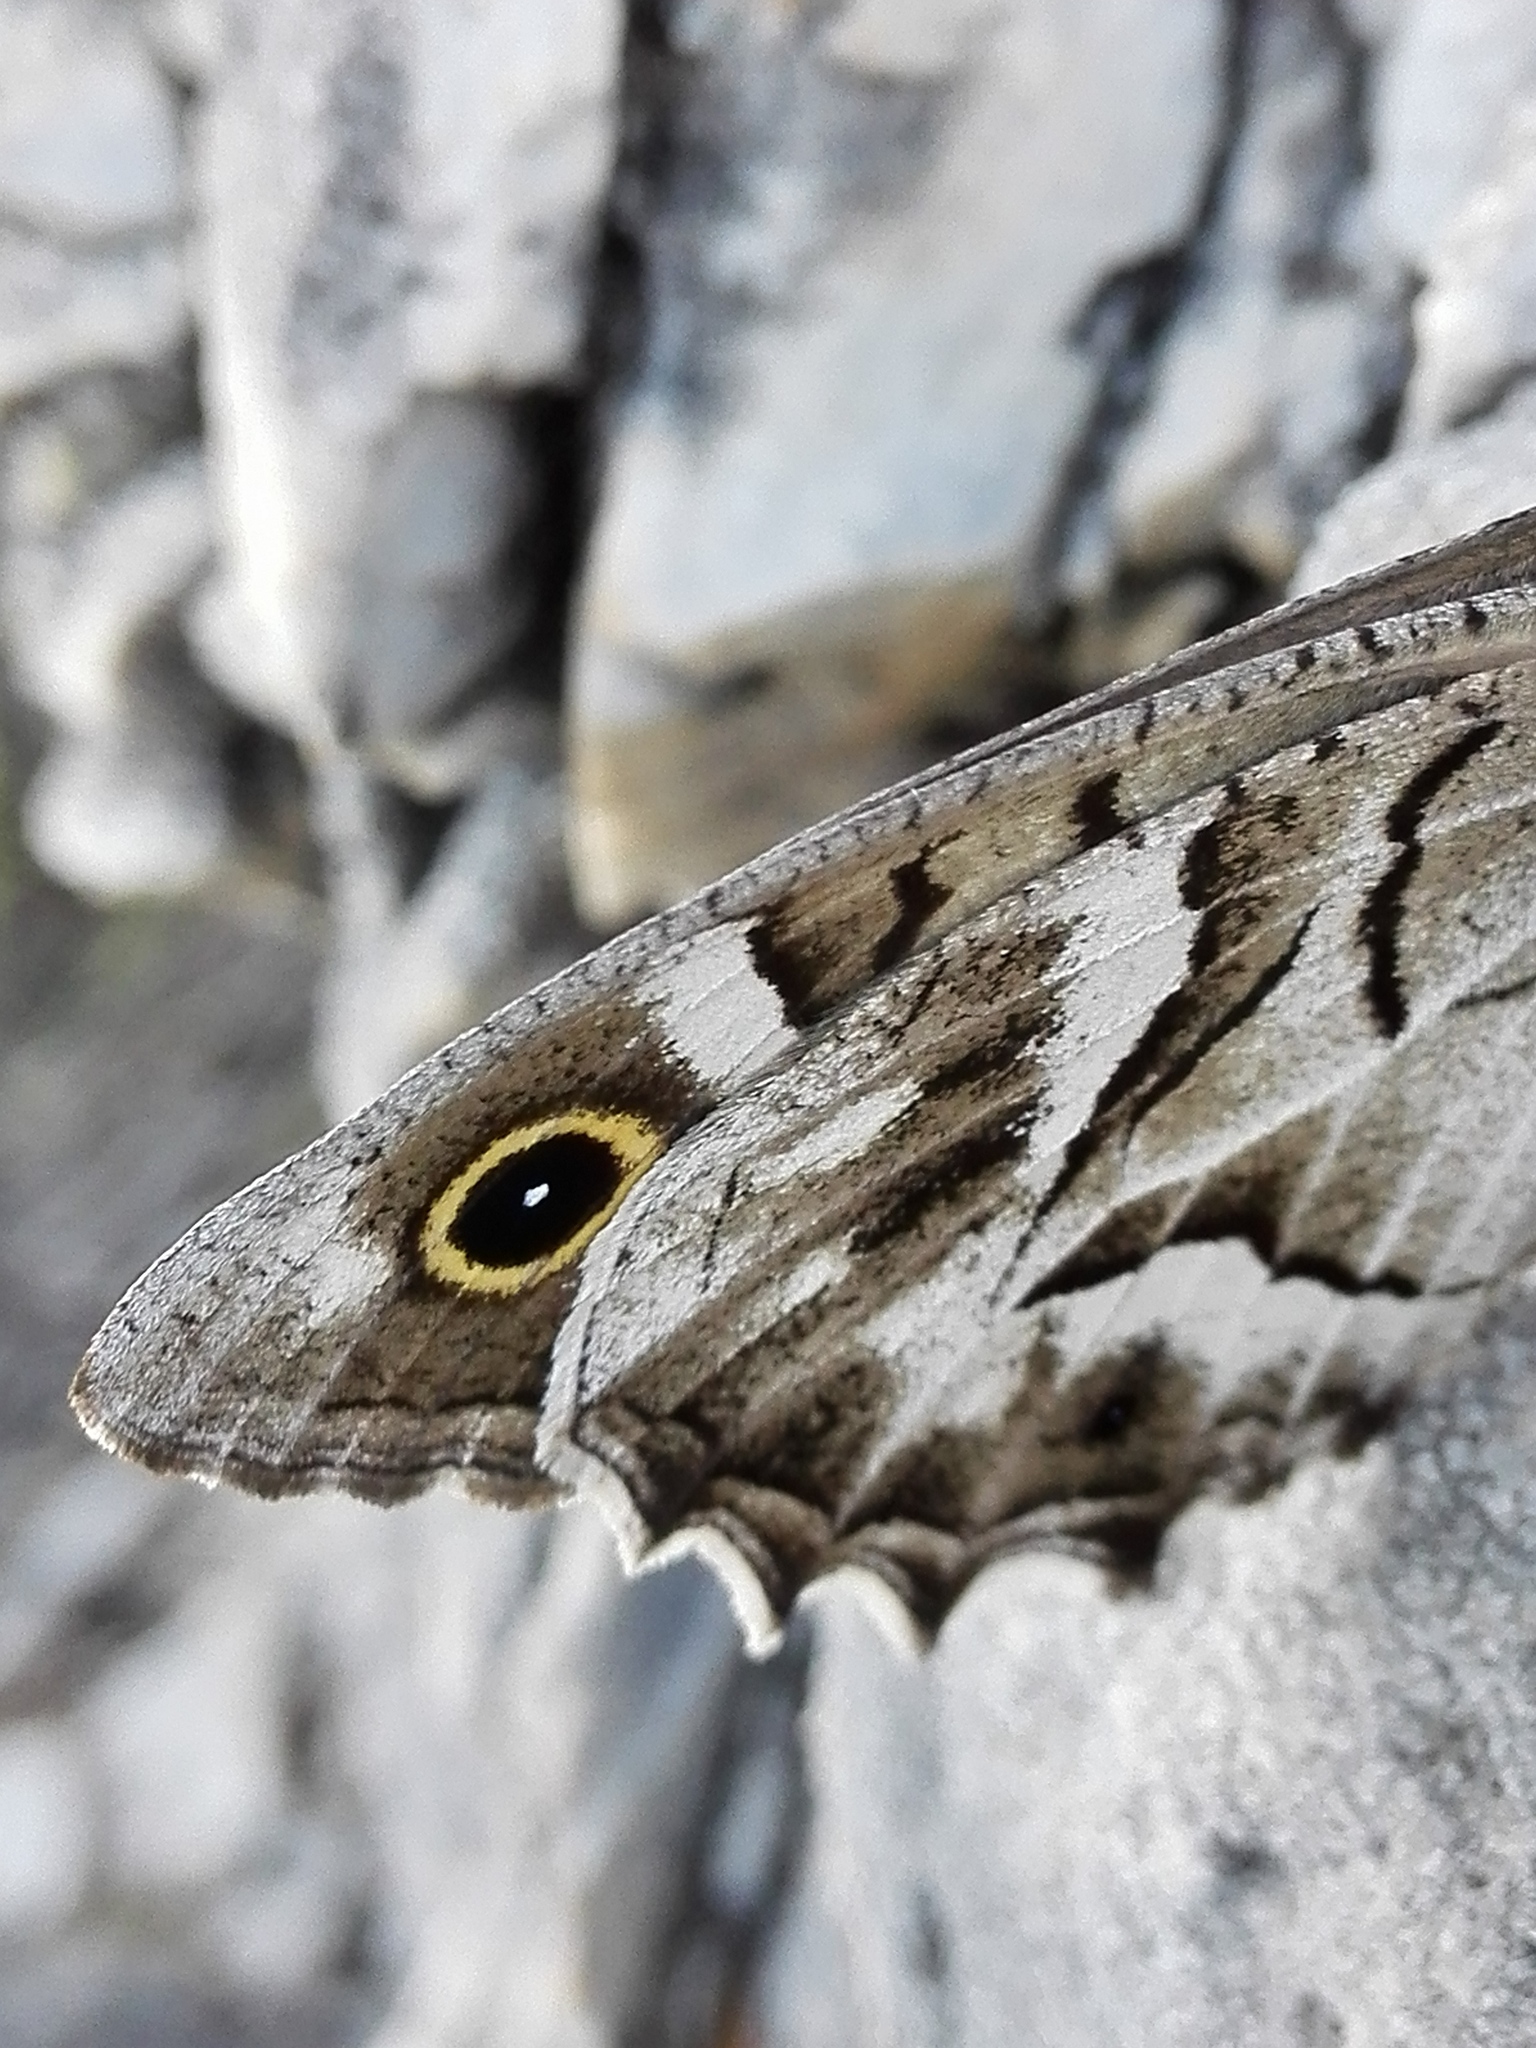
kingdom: Animalia
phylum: Arthropoda
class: Insecta
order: Lepidoptera
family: Nymphalidae
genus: Hipparchia
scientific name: Hipparchia fidia
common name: Striped grayling
